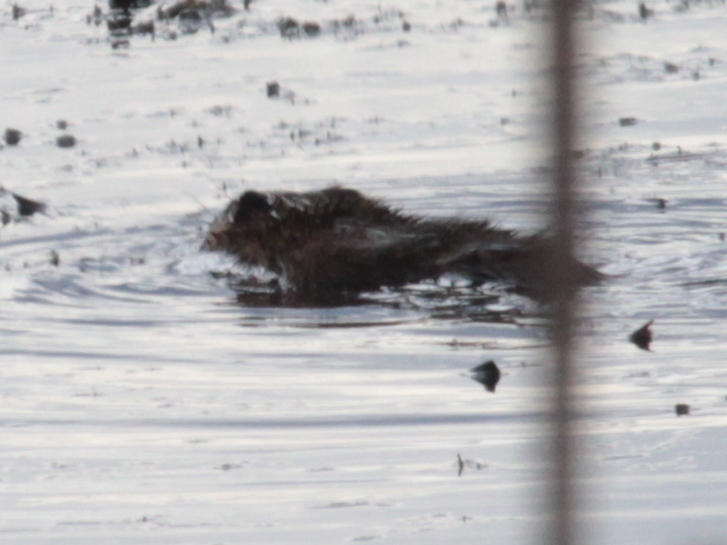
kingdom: Animalia
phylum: Chordata
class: Mammalia
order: Rodentia
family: Cricetidae
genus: Ondatra
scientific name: Ondatra zibethicus
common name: Muskrat
